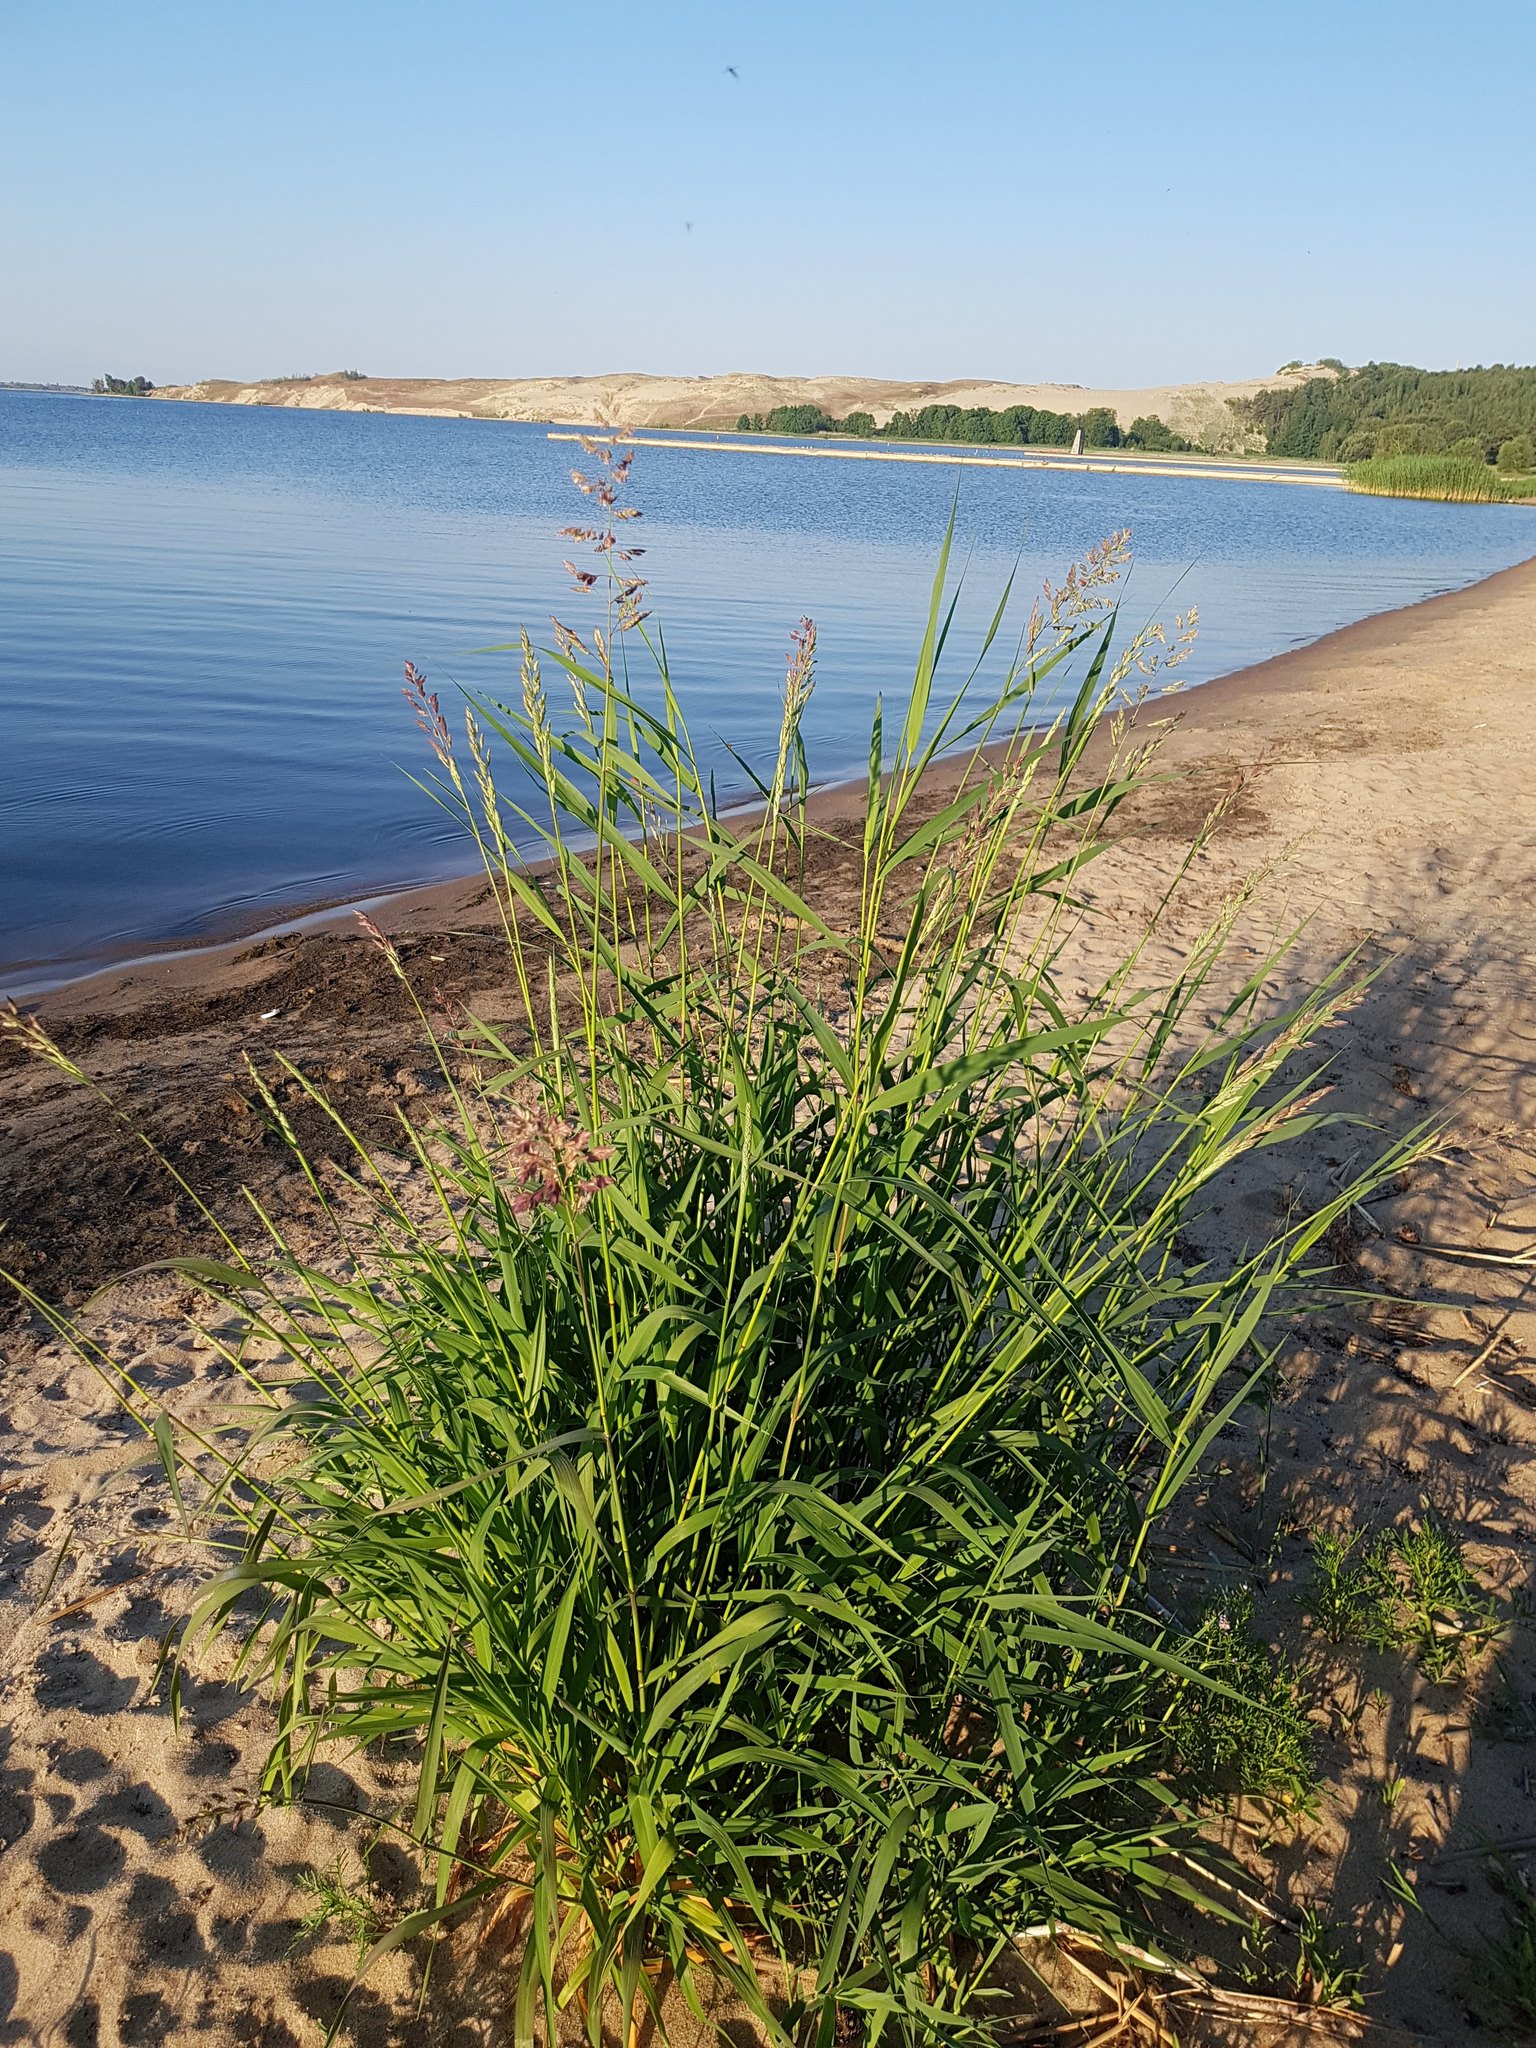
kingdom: Plantae
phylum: Tracheophyta
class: Liliopsida
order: Poales
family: Poaceae
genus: Phalaris
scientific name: Phalaris arundinacea
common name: Reed canary-grass
